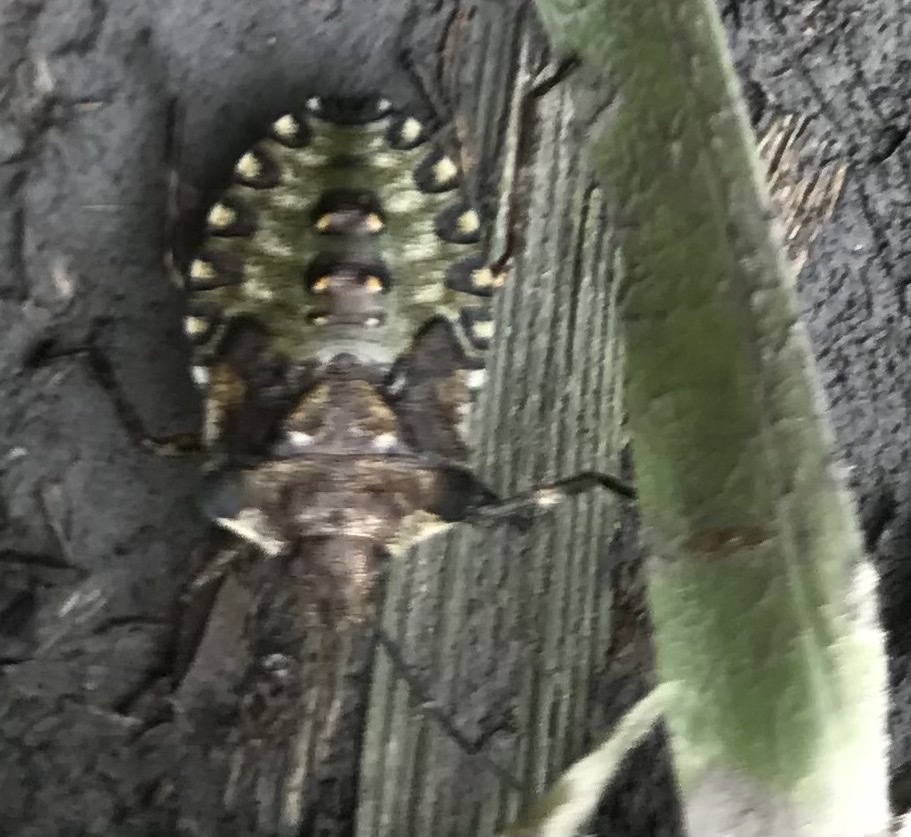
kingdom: Animalia
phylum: Arthropoda
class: Insecta
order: Hemiptera
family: Pentatomidae
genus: Pentatoma
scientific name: Pentatoma rufipes
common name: Forest bug
